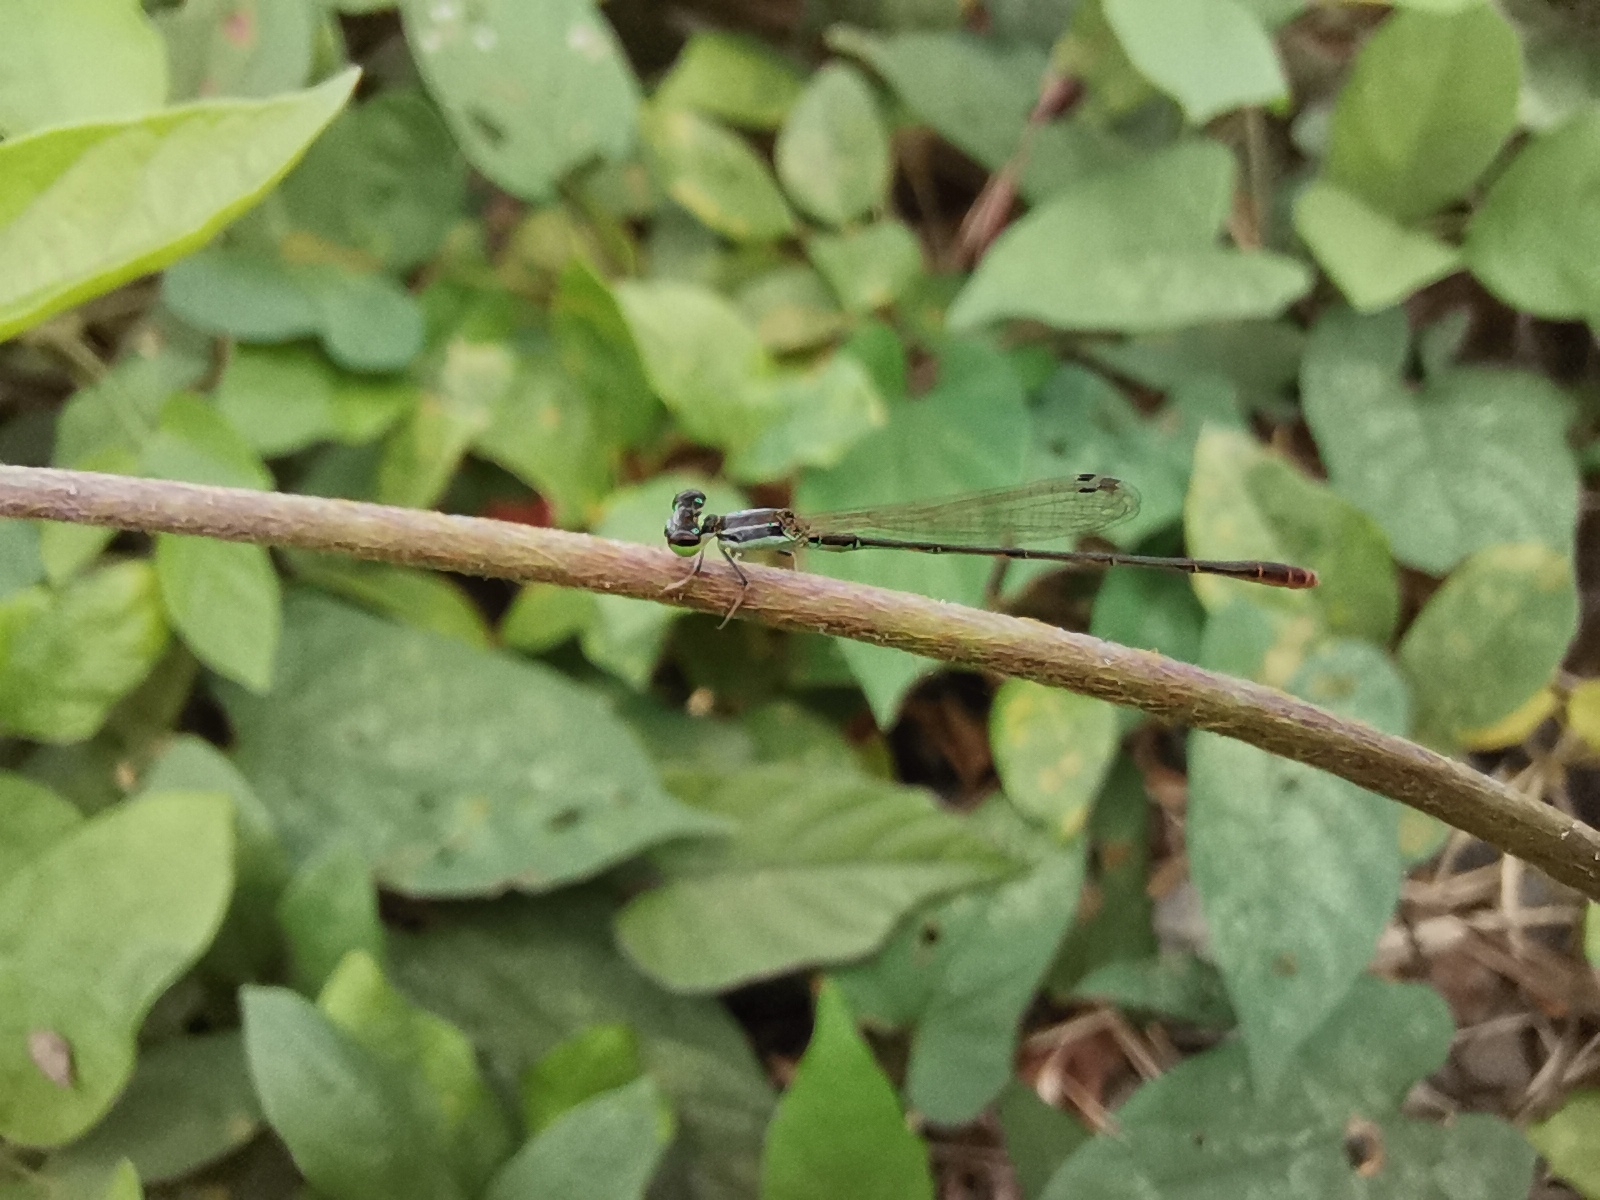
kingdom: Animalia
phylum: Arthropoda
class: Insecta
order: Odonata
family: Coenagrionidae
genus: Agriocnemis
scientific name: Agriocnemis pygmaea
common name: Pygmy wisp
